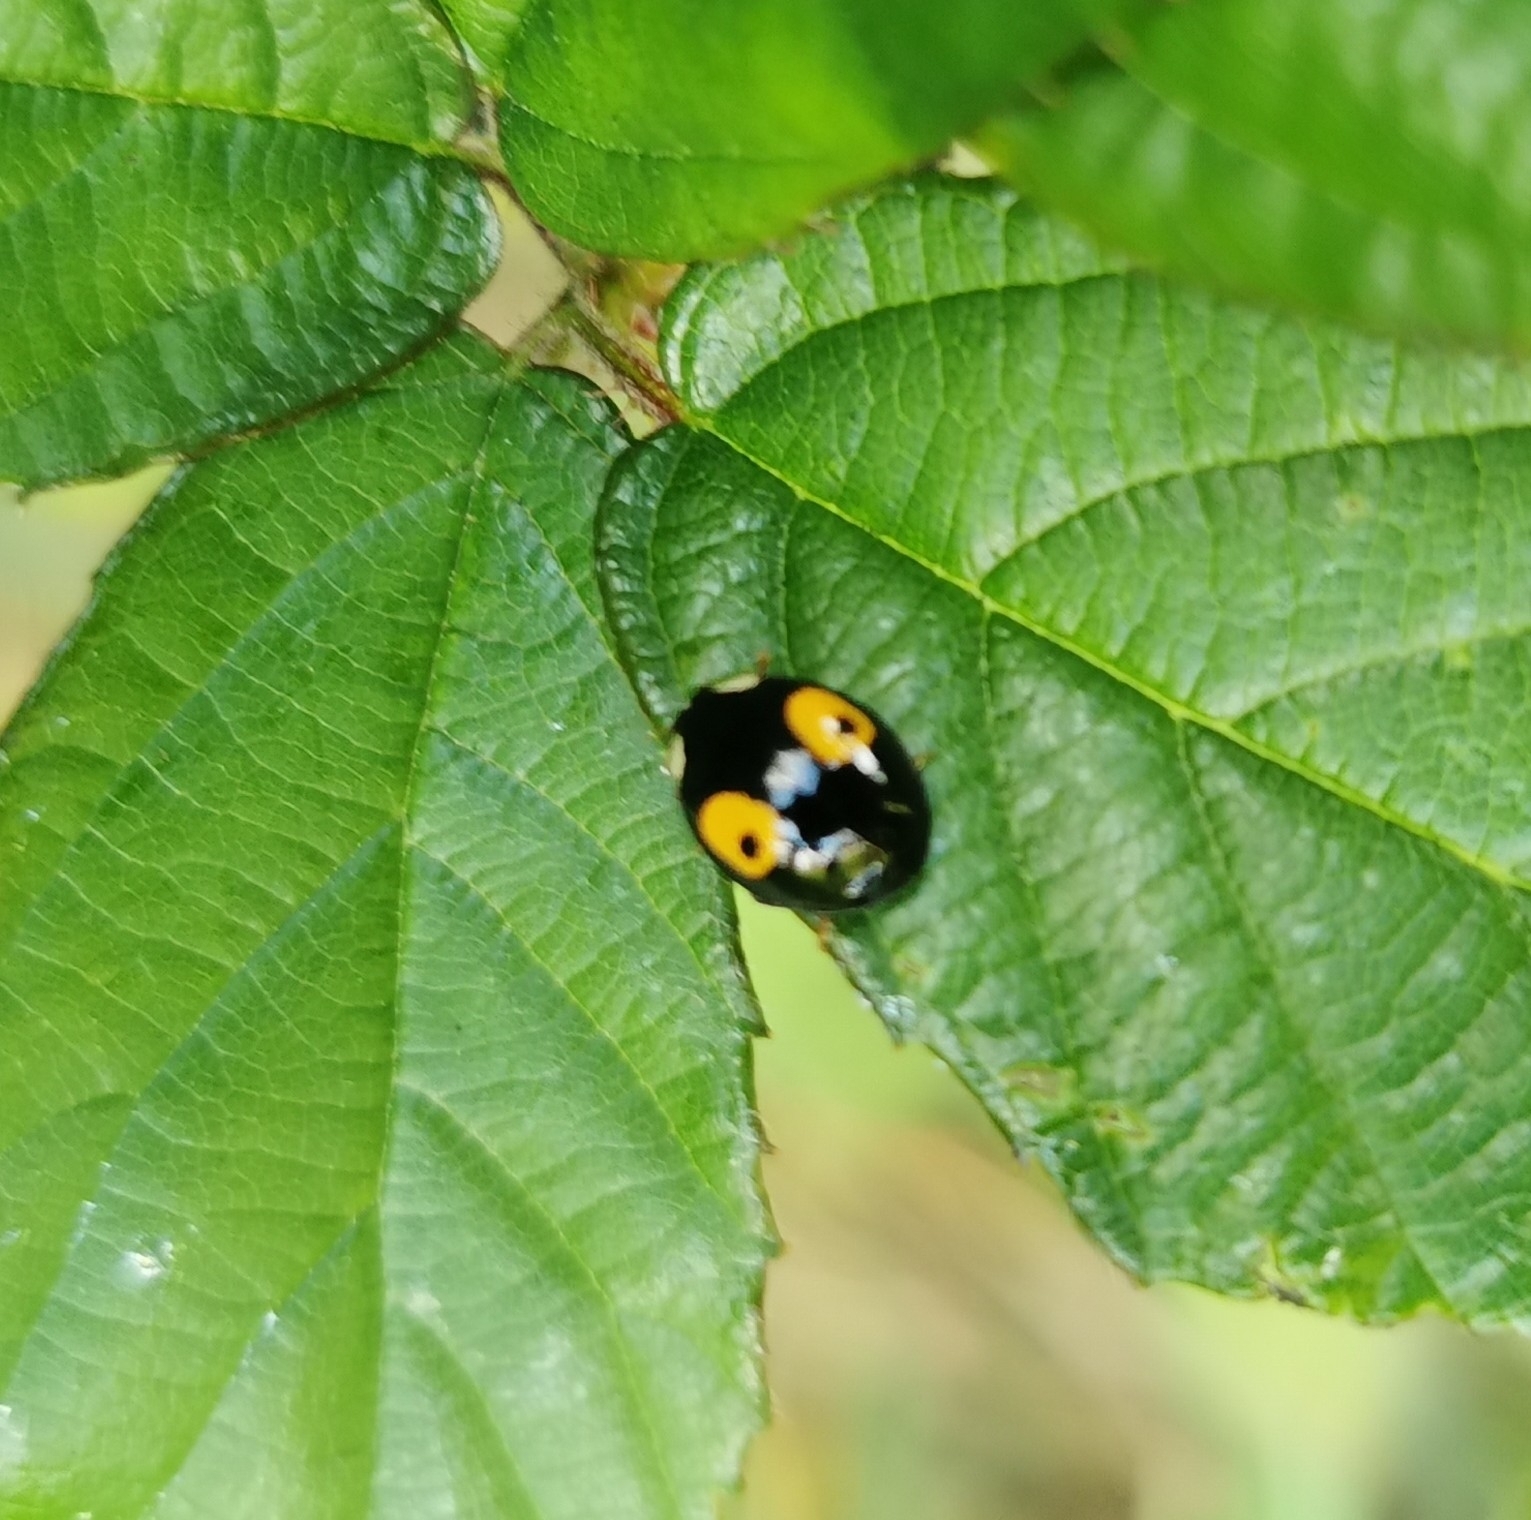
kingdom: Animalia
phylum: Arthropoda
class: Insecta
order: Coleoptera
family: Coccinellidae
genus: Harmonia
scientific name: Harmonia axyridis
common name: Harlequin ladybird
